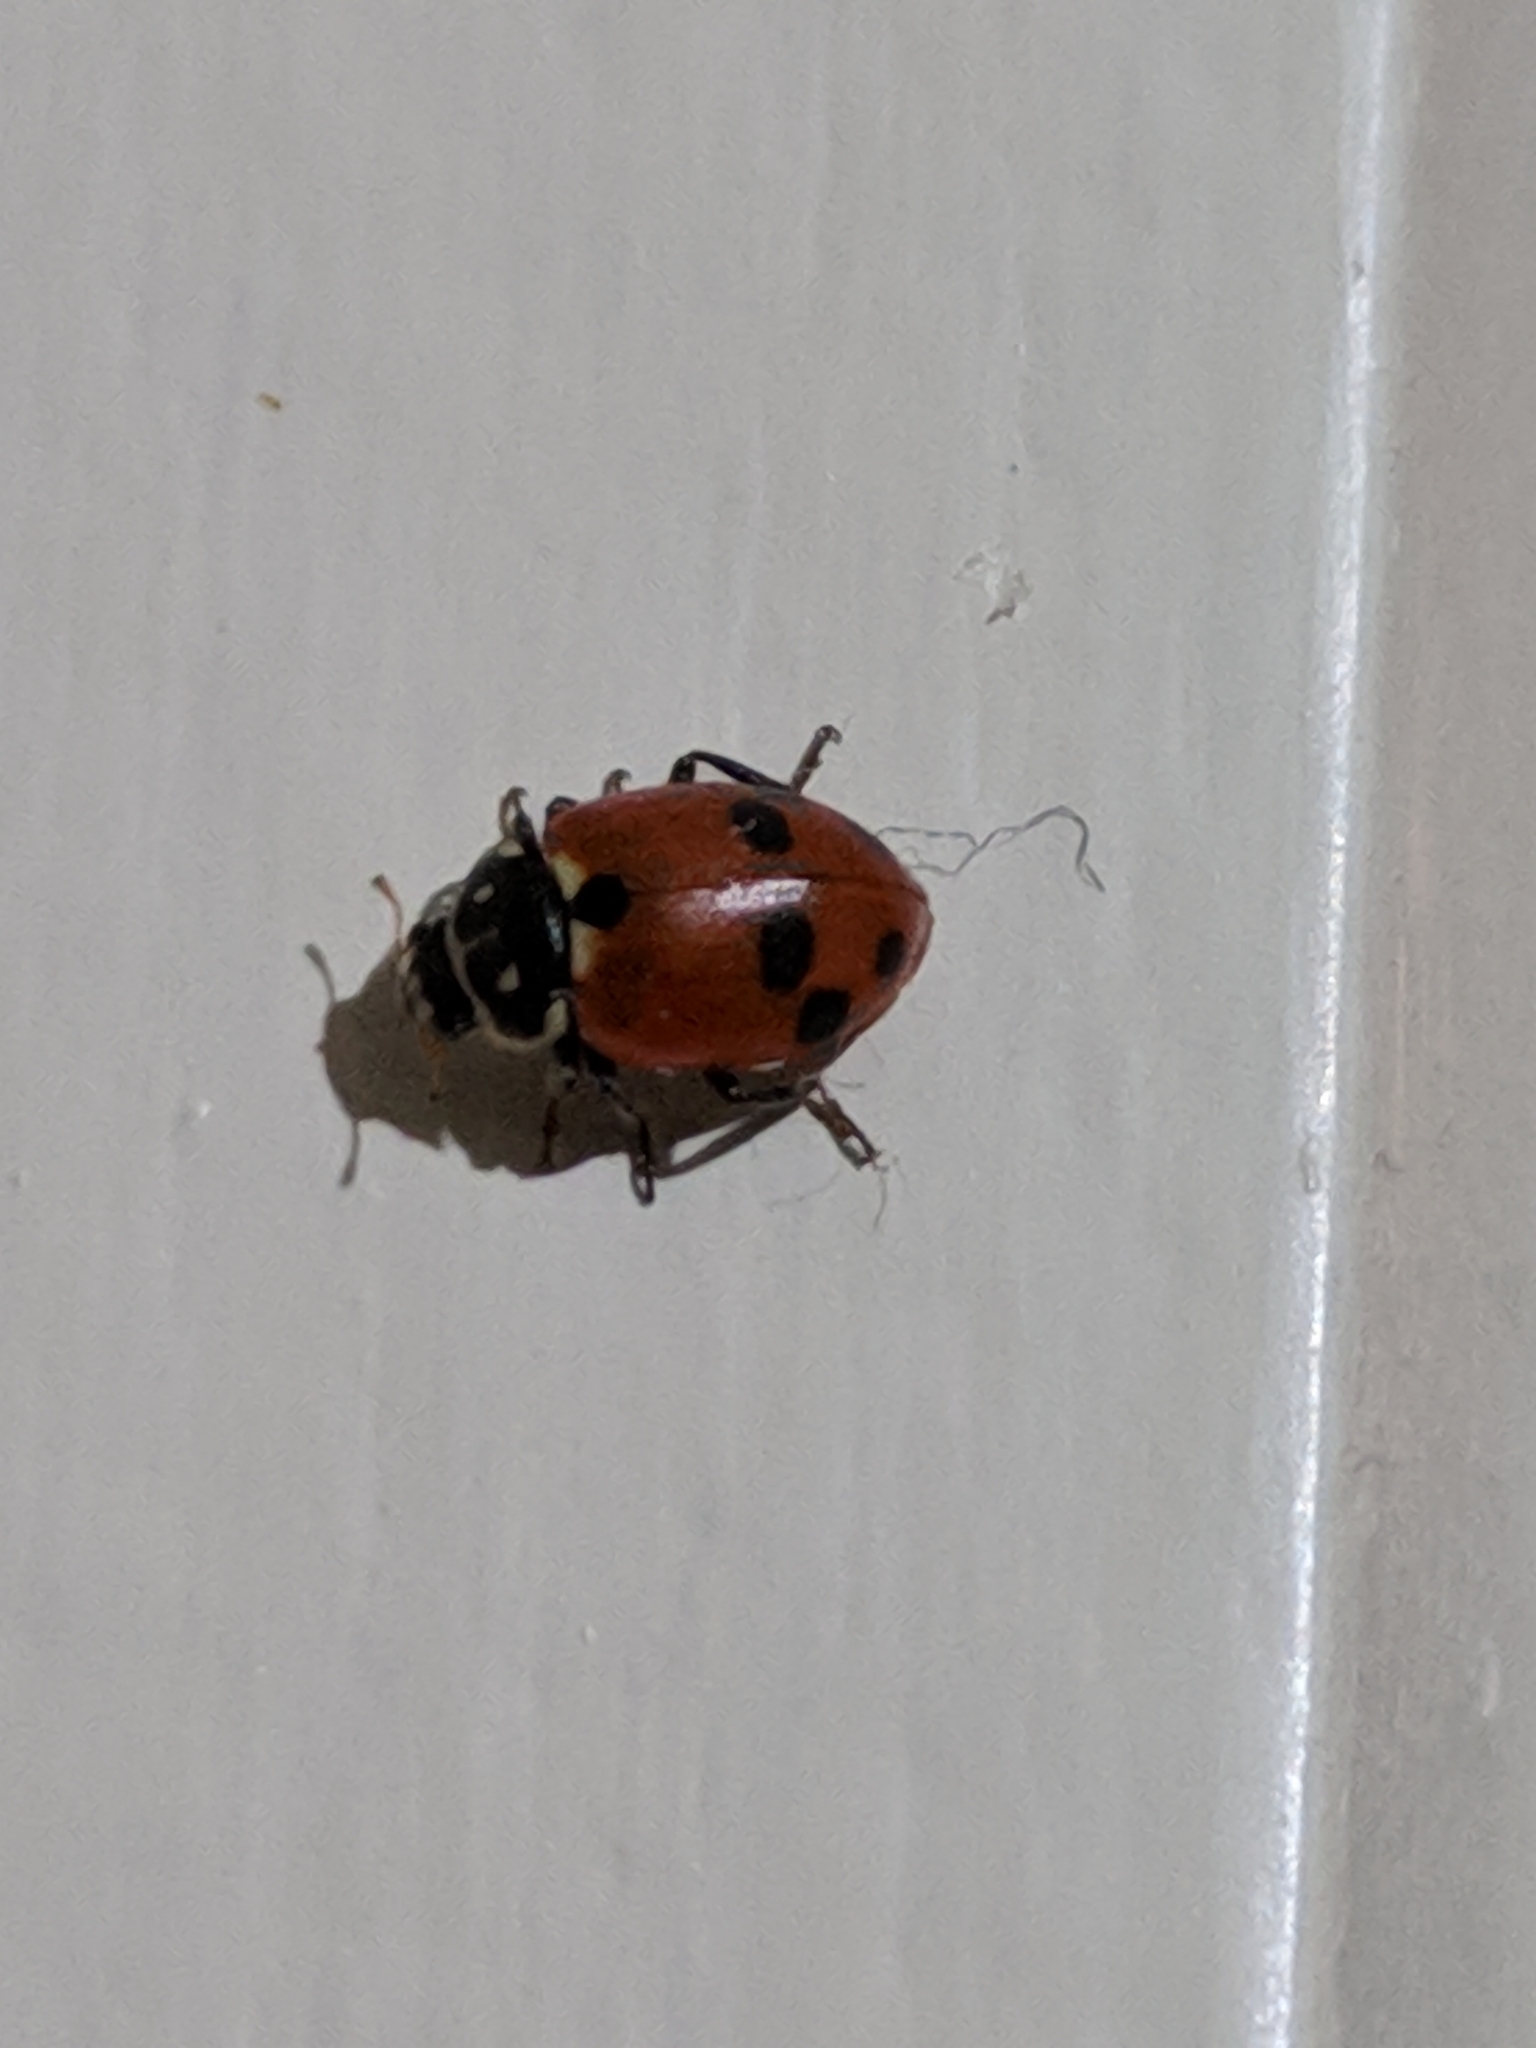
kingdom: Animalia
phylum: Arthropoda
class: Insecta
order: Coleoptera
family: Coccinellidae
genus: Hippodamia
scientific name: Hippodamia variegata
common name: Ladybird beetle
